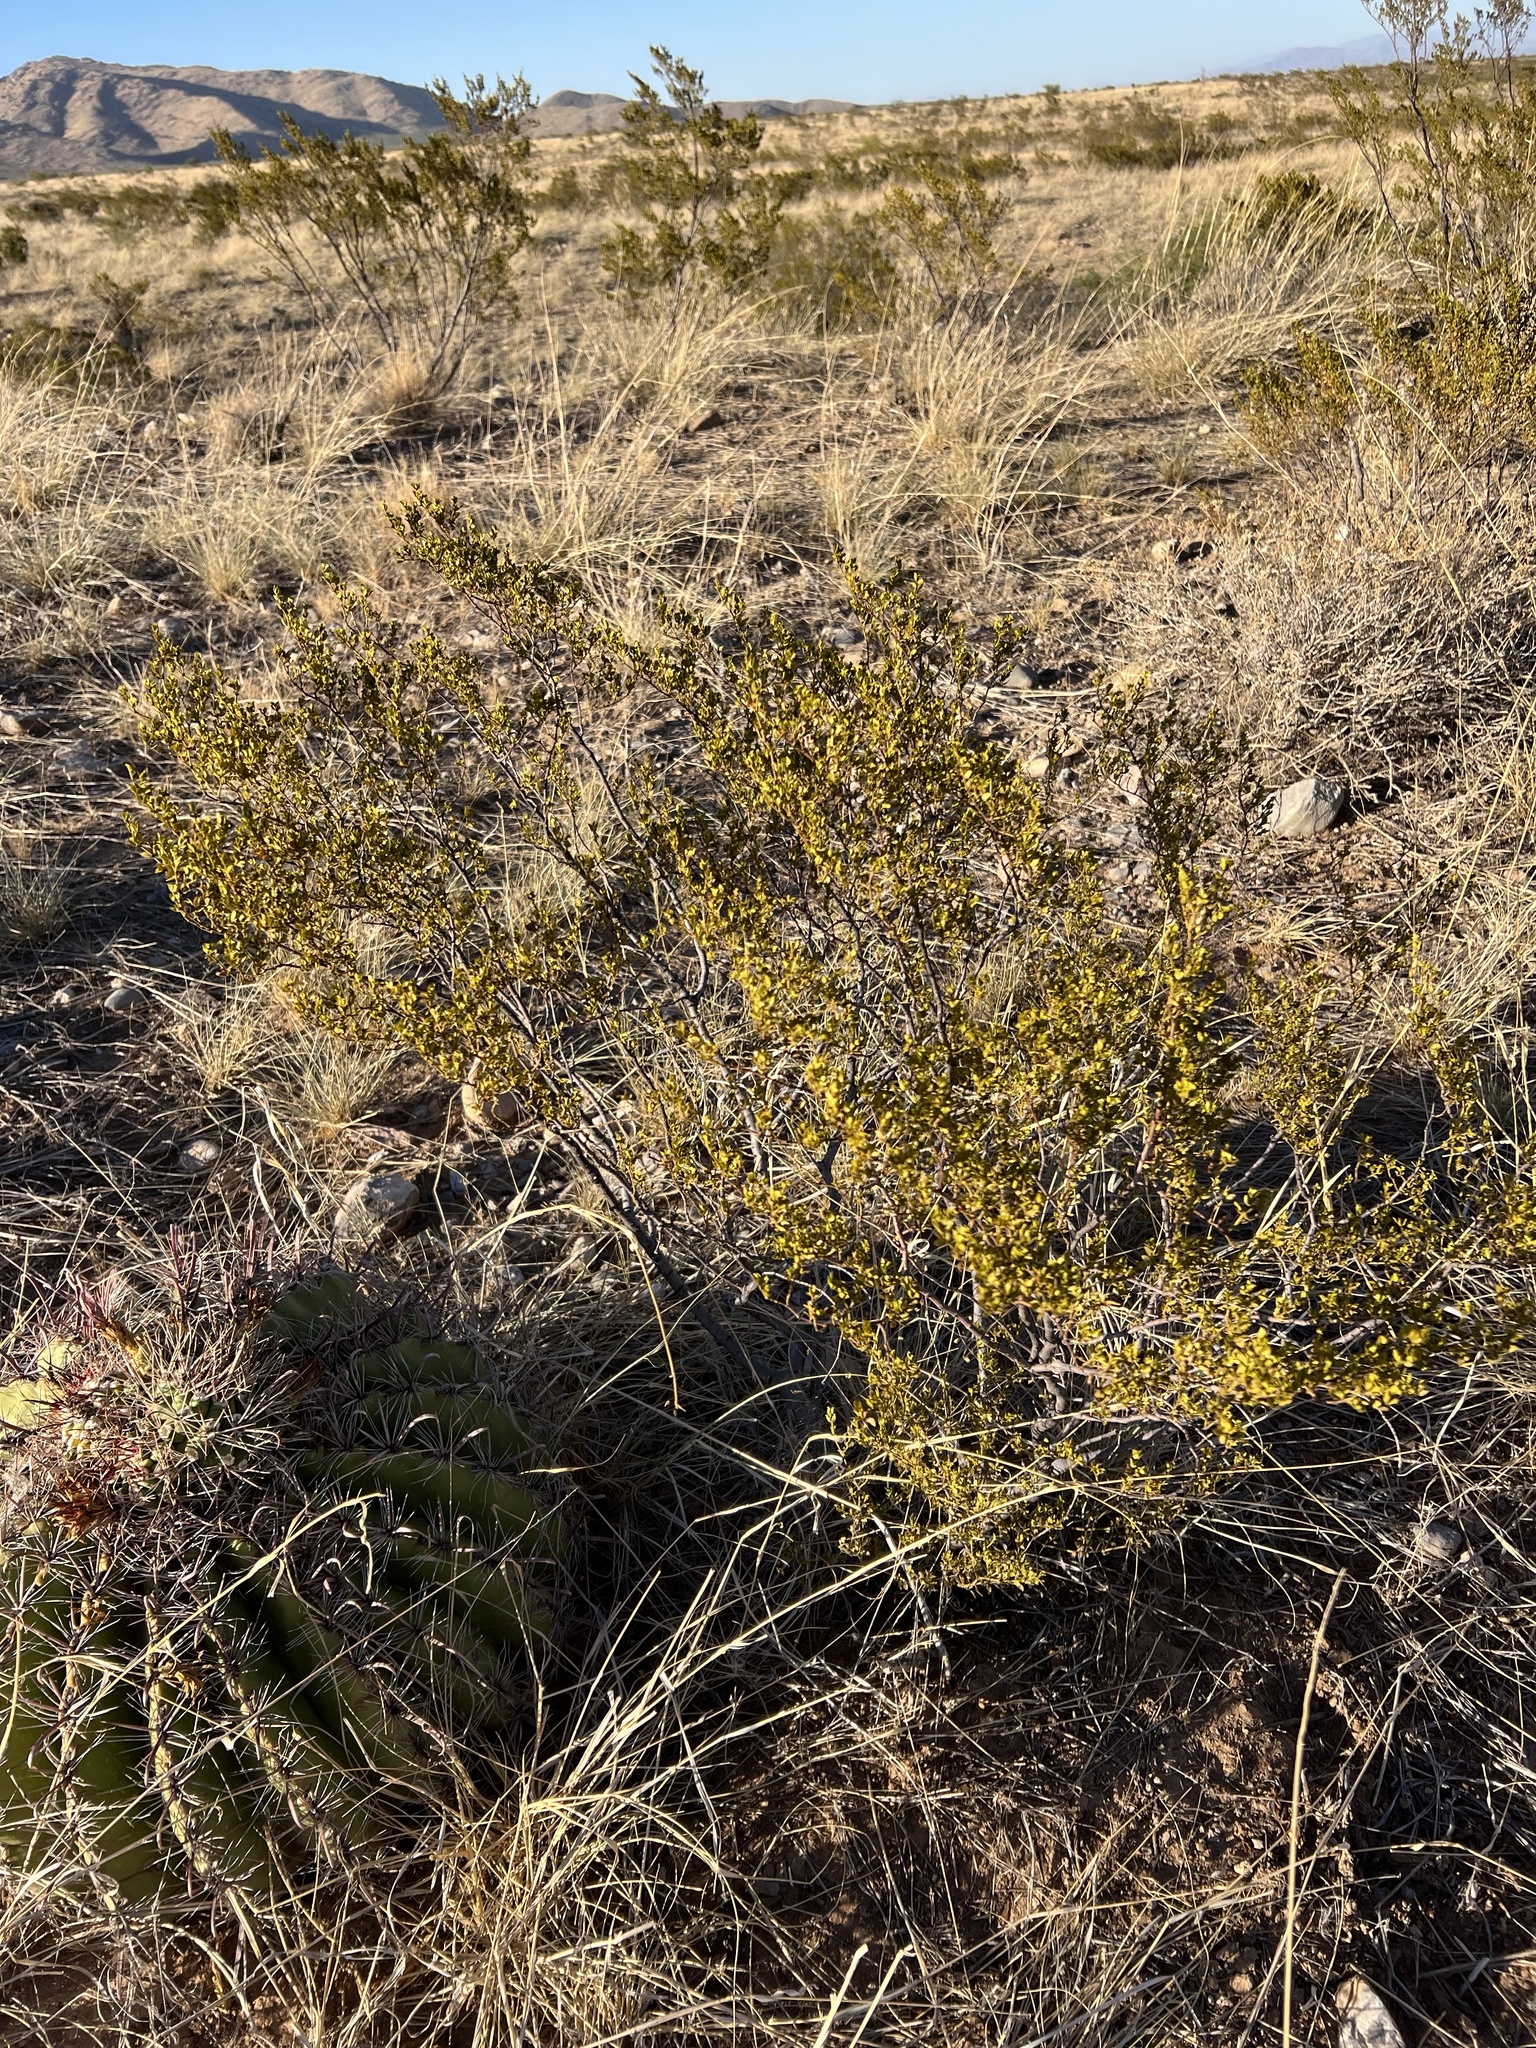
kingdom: Plantae
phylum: Tracheophyta
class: Magnoliopsida
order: Zygophyllales
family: Zygophyllaceae
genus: Larrea
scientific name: Larrea tridentata
